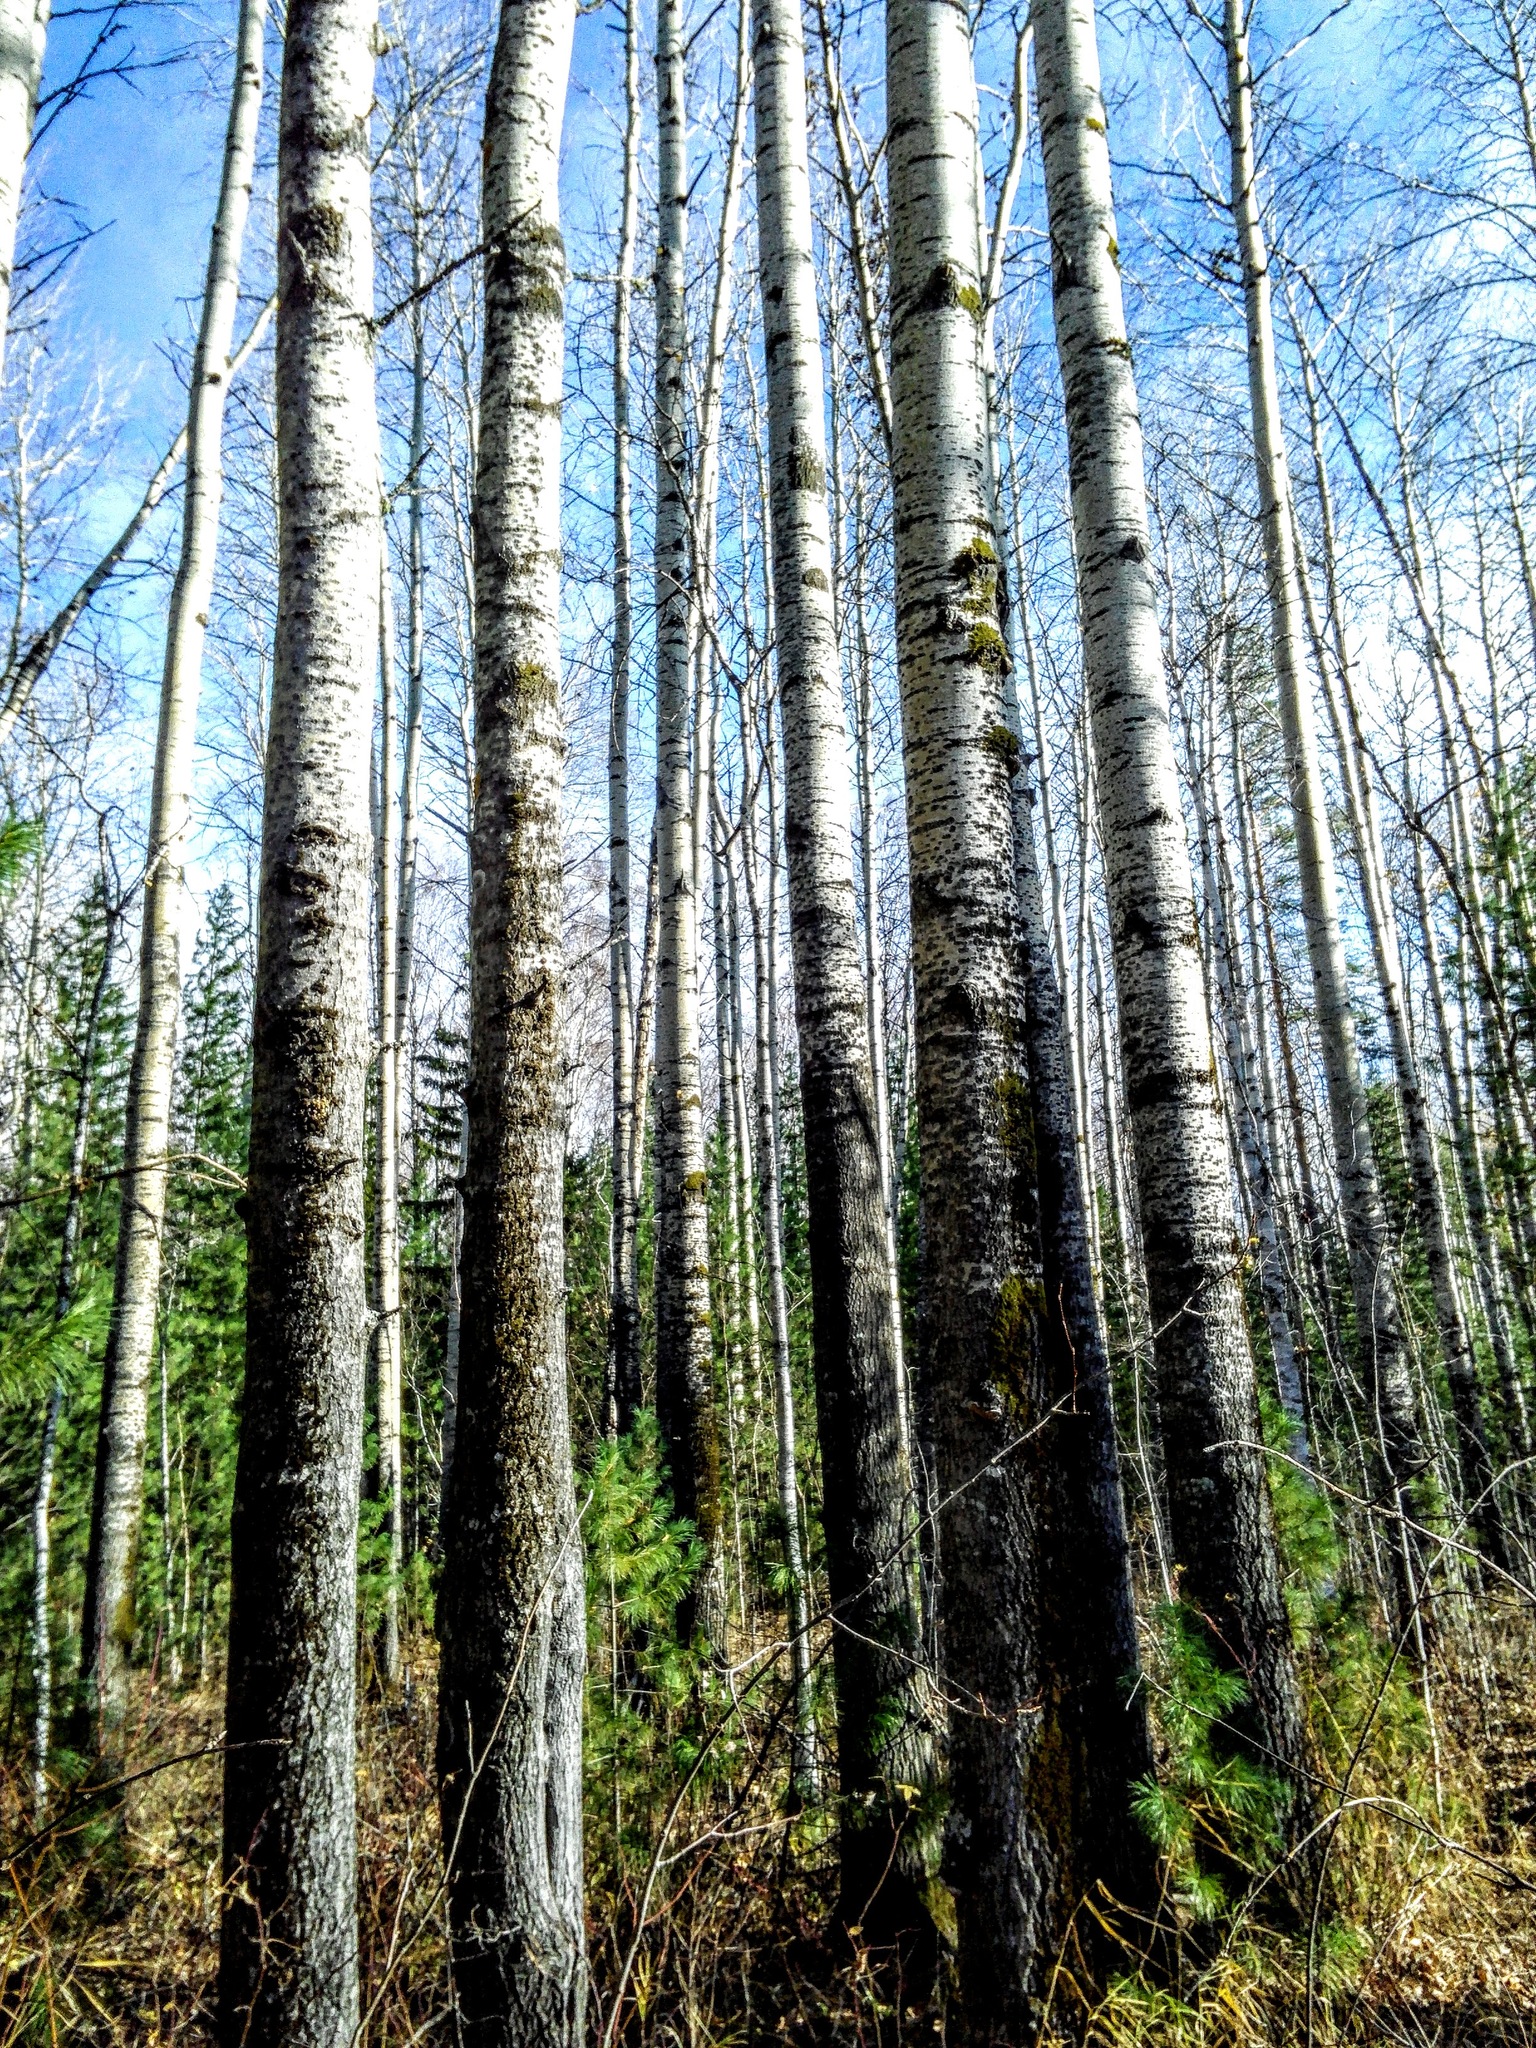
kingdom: Plantae
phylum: Tracheophyta
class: Magnoliopsida
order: Malpighiales
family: Salicaceae
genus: Populus
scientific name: Populus tremula
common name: European aspen
